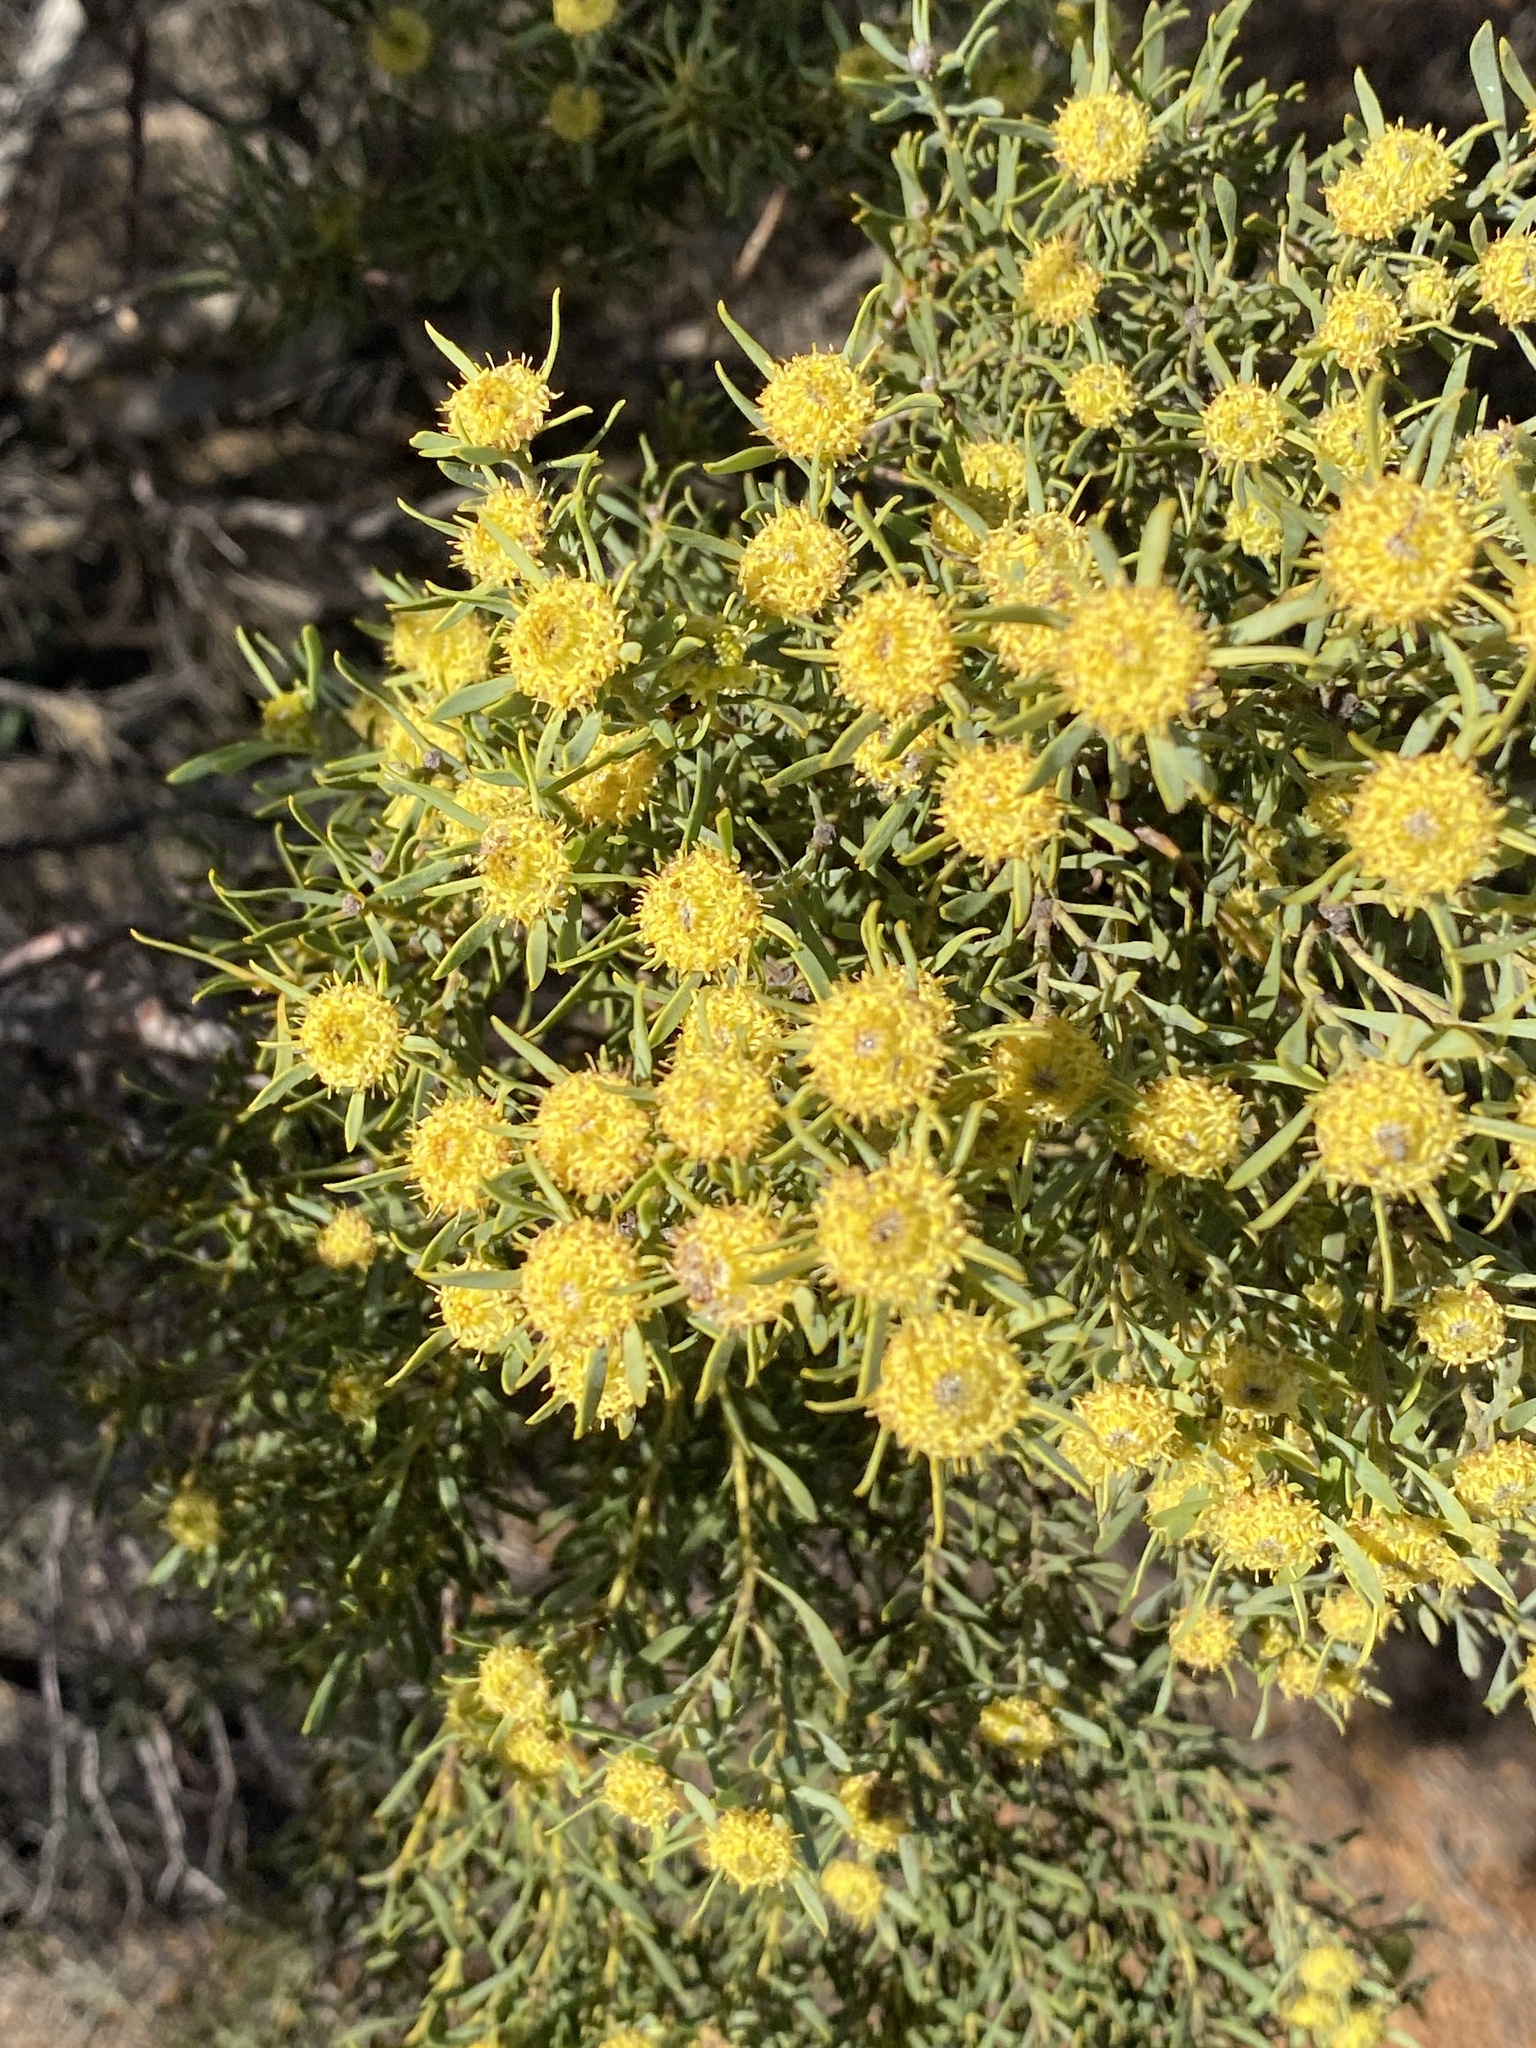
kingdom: Plantae
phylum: Tracheophyta
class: Magnoliopsida
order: Proteales
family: Proteaceae
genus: Leucadendron
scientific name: Leucadendron pubescens
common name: Grey conebush
